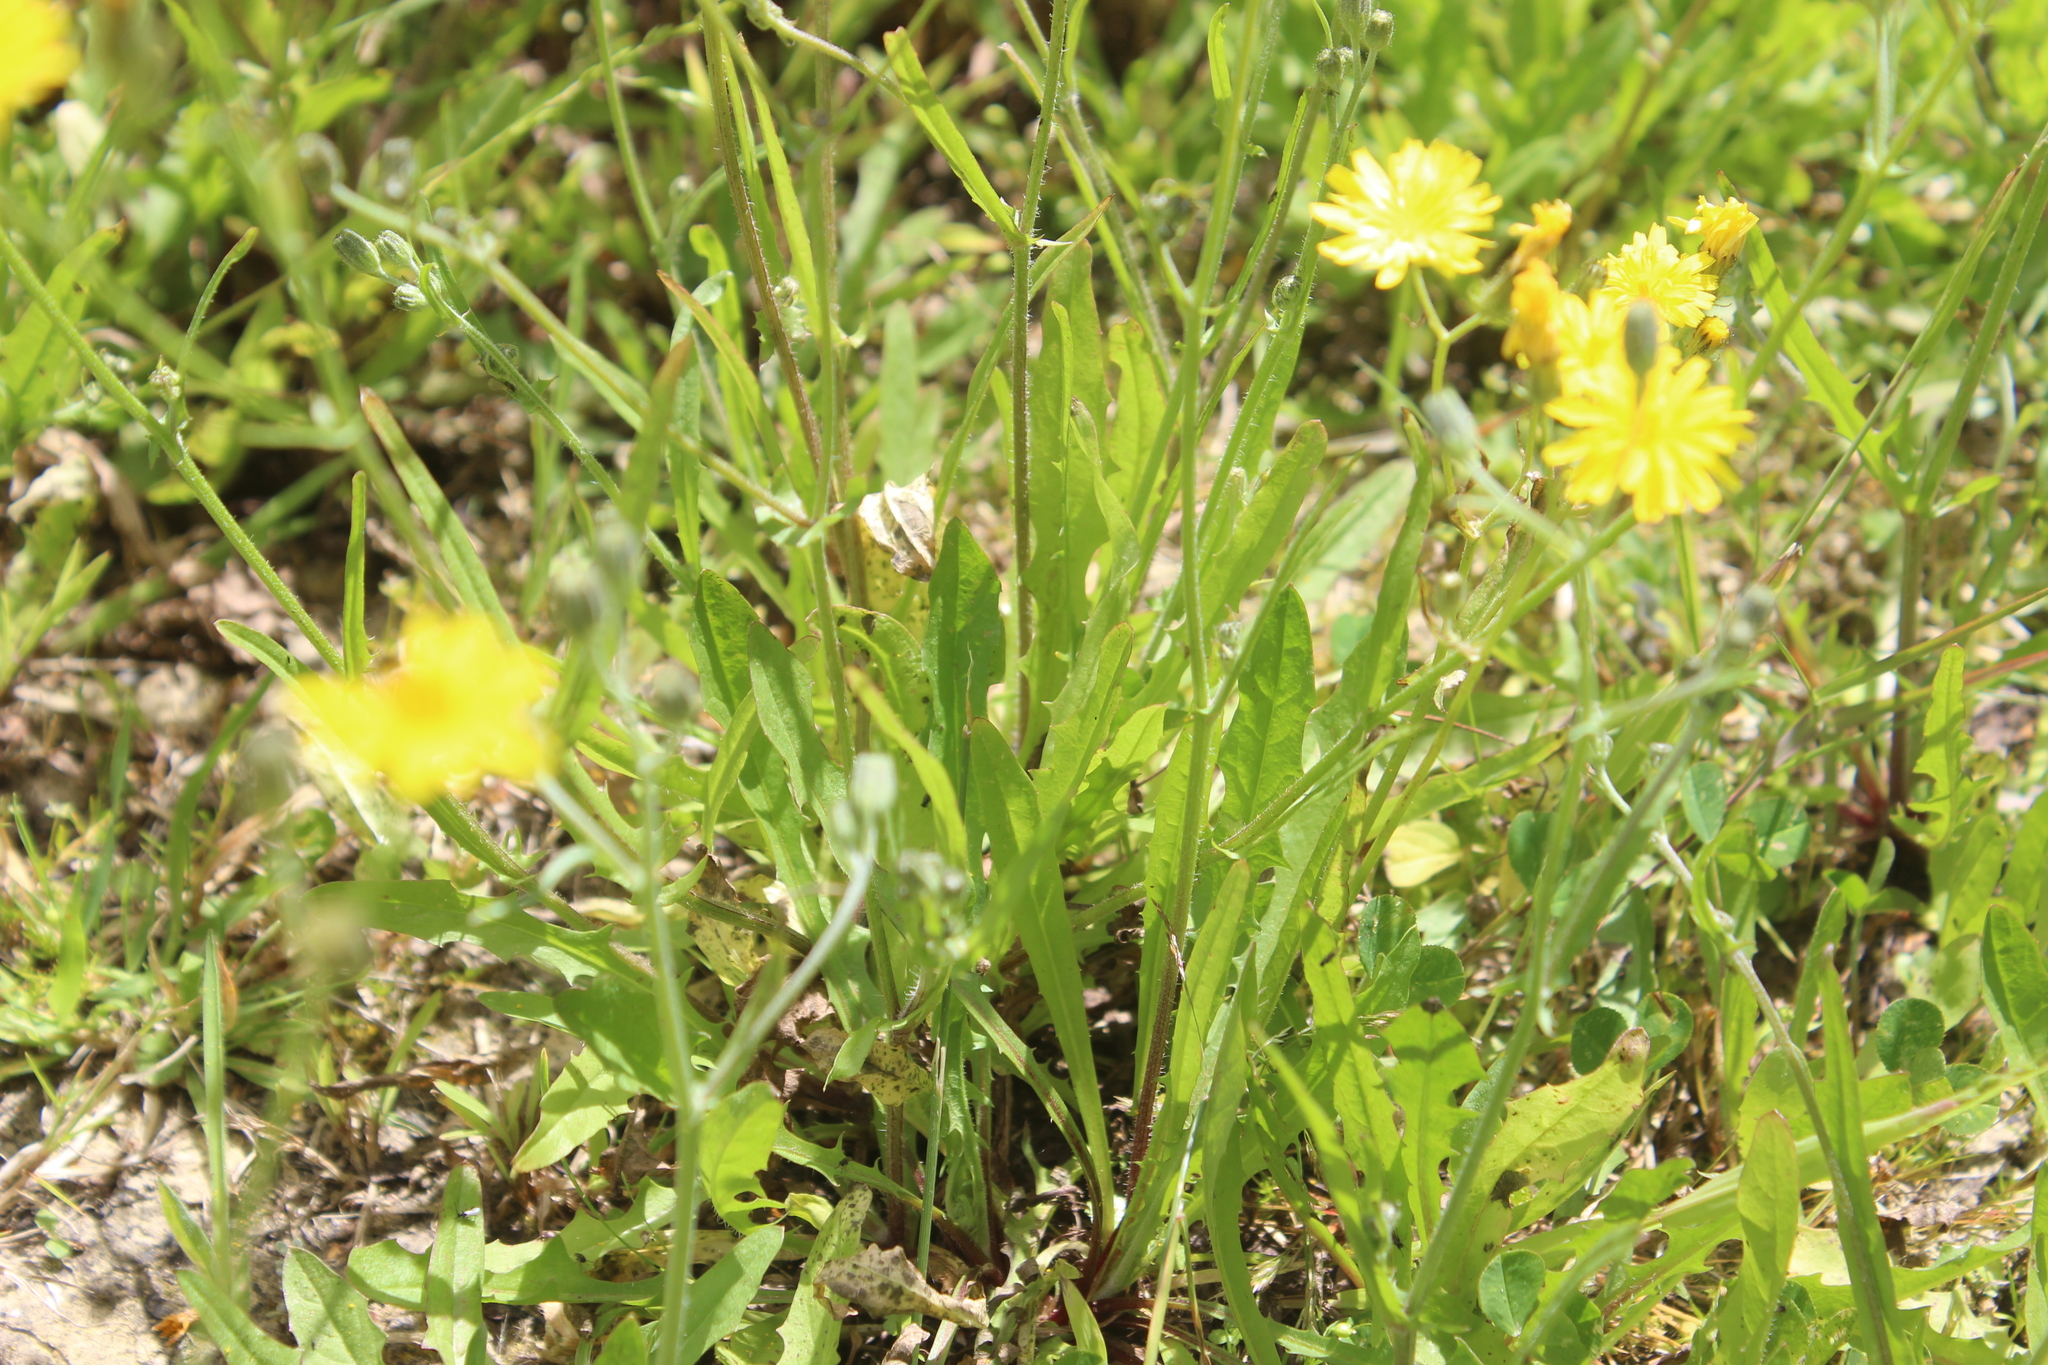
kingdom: Plantae
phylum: Tracheophyta
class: Magnoliopsida
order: Asterales
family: Asteraceae
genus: Crepis
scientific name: Crepis capillaris
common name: Smooth hawksbeard
